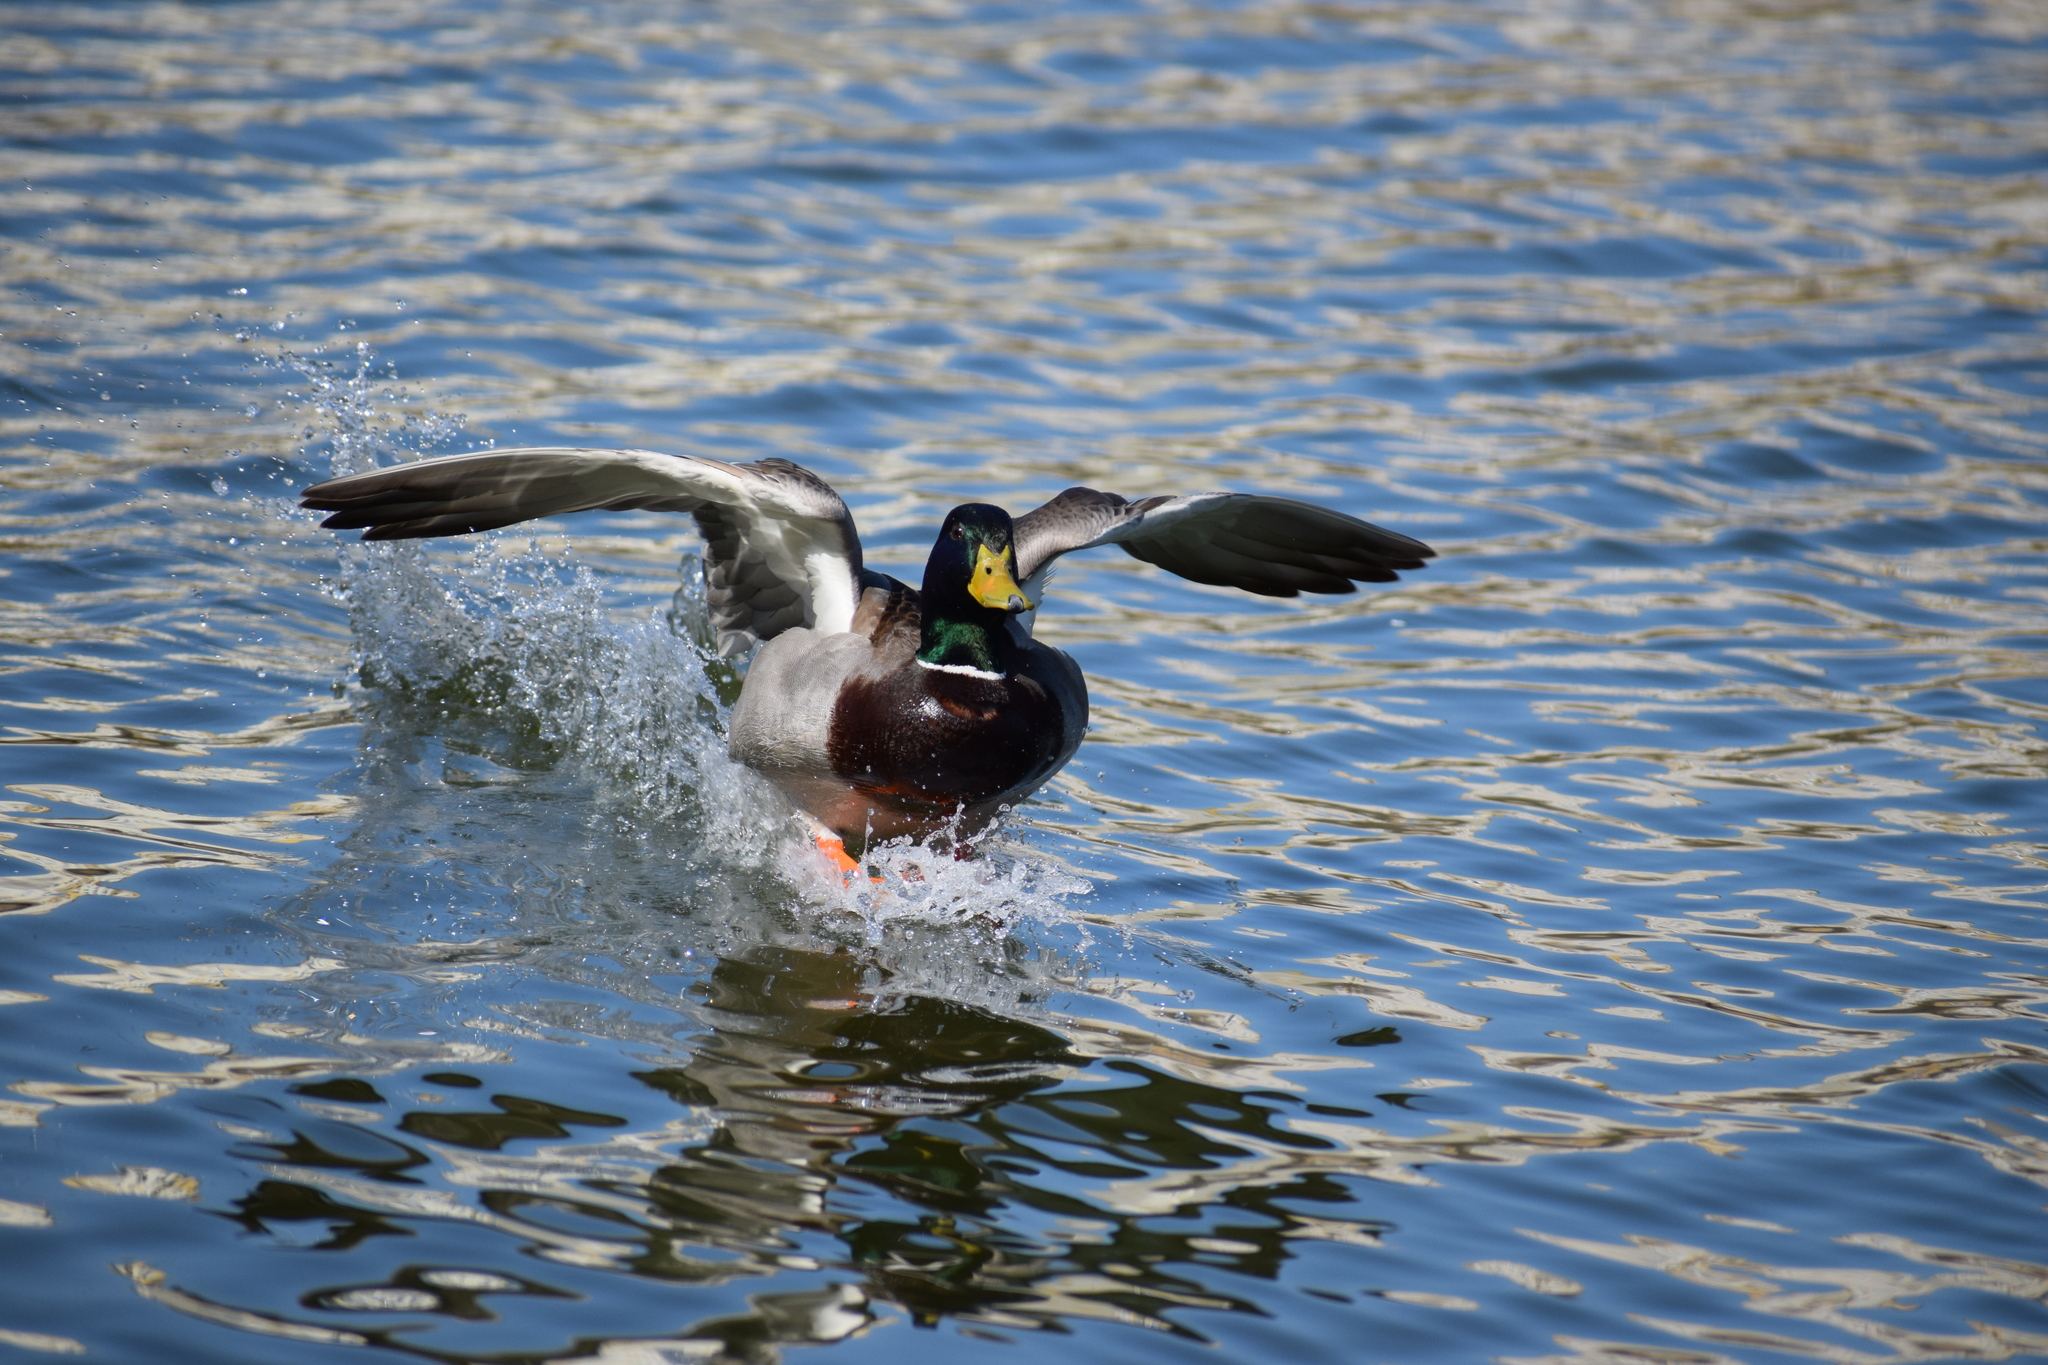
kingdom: Animalia
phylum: Chordata
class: Aves
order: Anseriformes
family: Anatidae
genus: Anas
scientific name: Anas platyrhynchos
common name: Mallard
